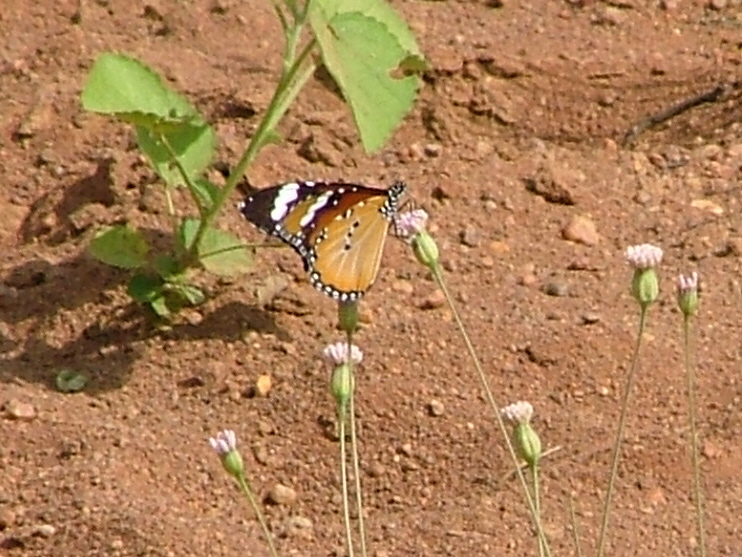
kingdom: Animalia
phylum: Arthropoda
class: Insecta
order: Lepidoptera
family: Nymphalidae
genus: Danaus
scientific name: Danaus chrysippus
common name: Plain tiger
